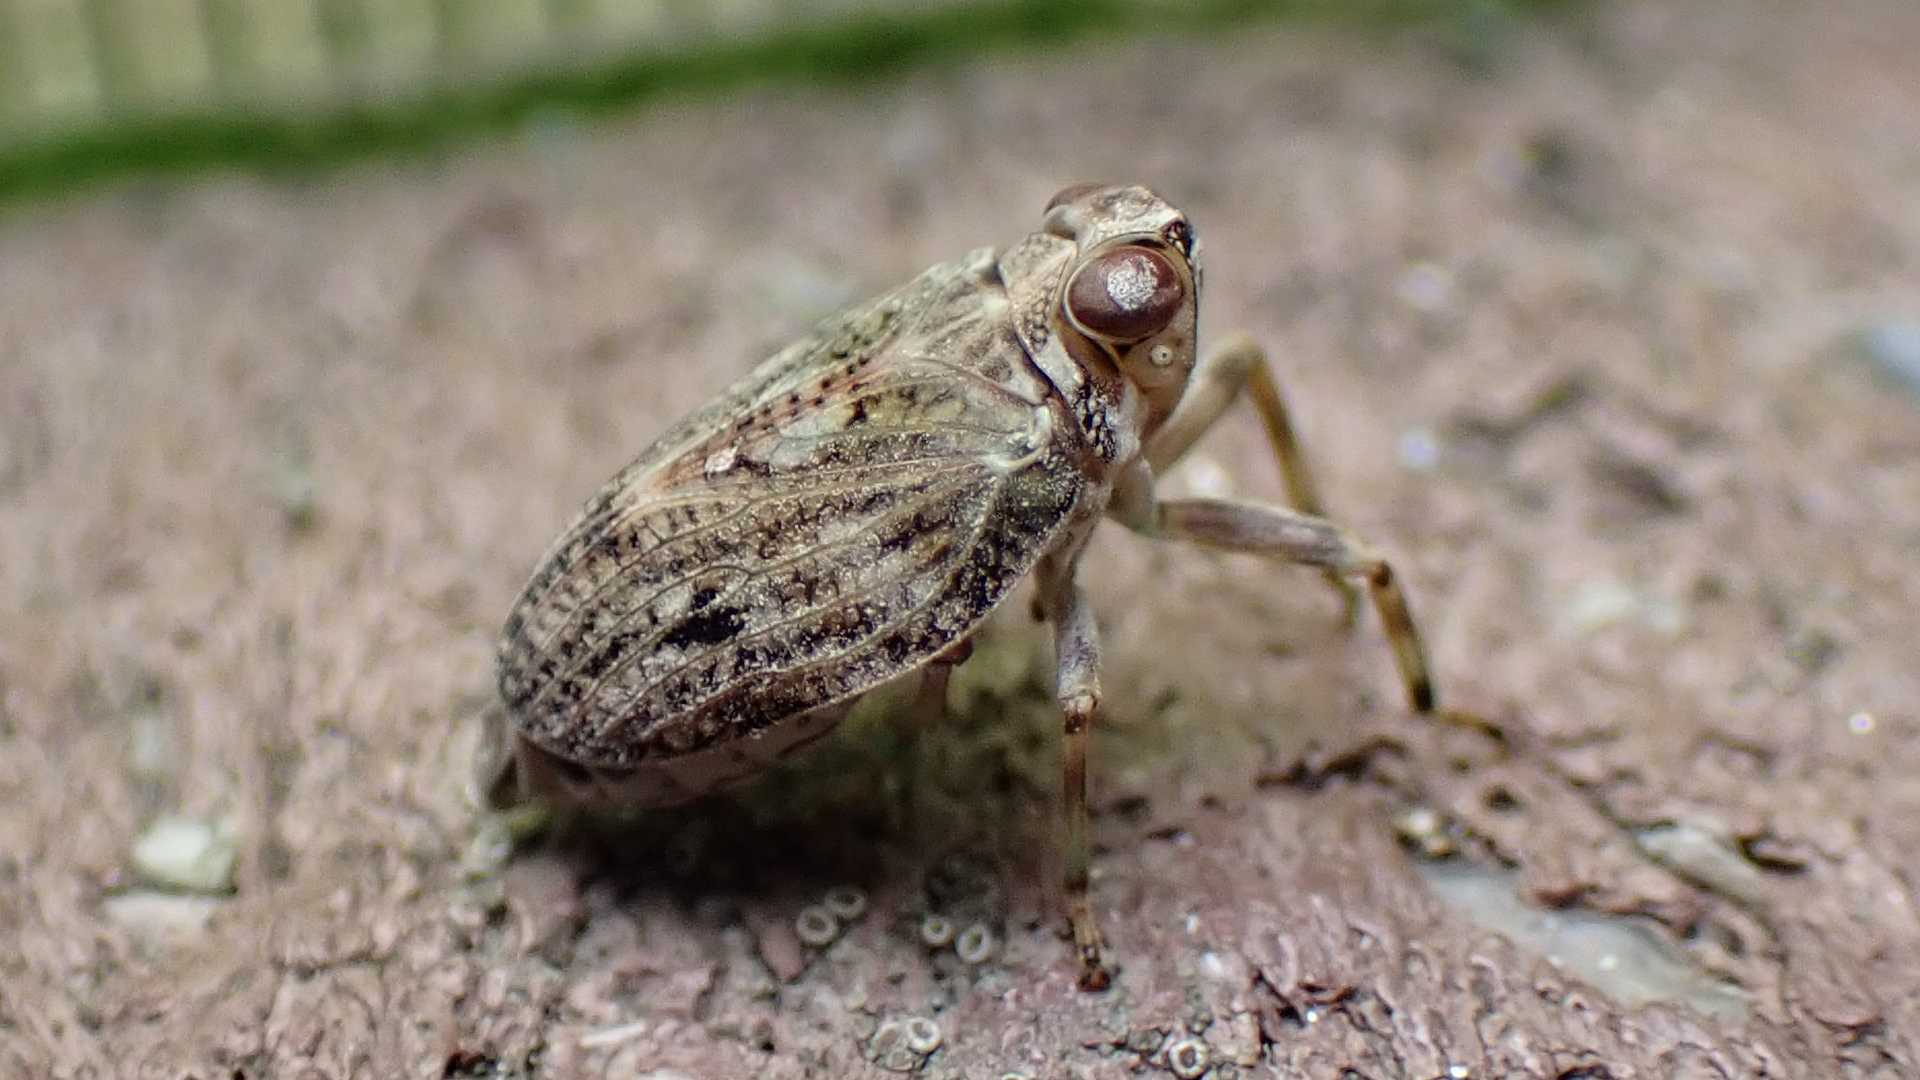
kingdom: Animalia
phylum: Arthropoda
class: Insecta
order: Hemiptera
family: Issidae
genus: Issus
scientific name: Issus coleoptratus
